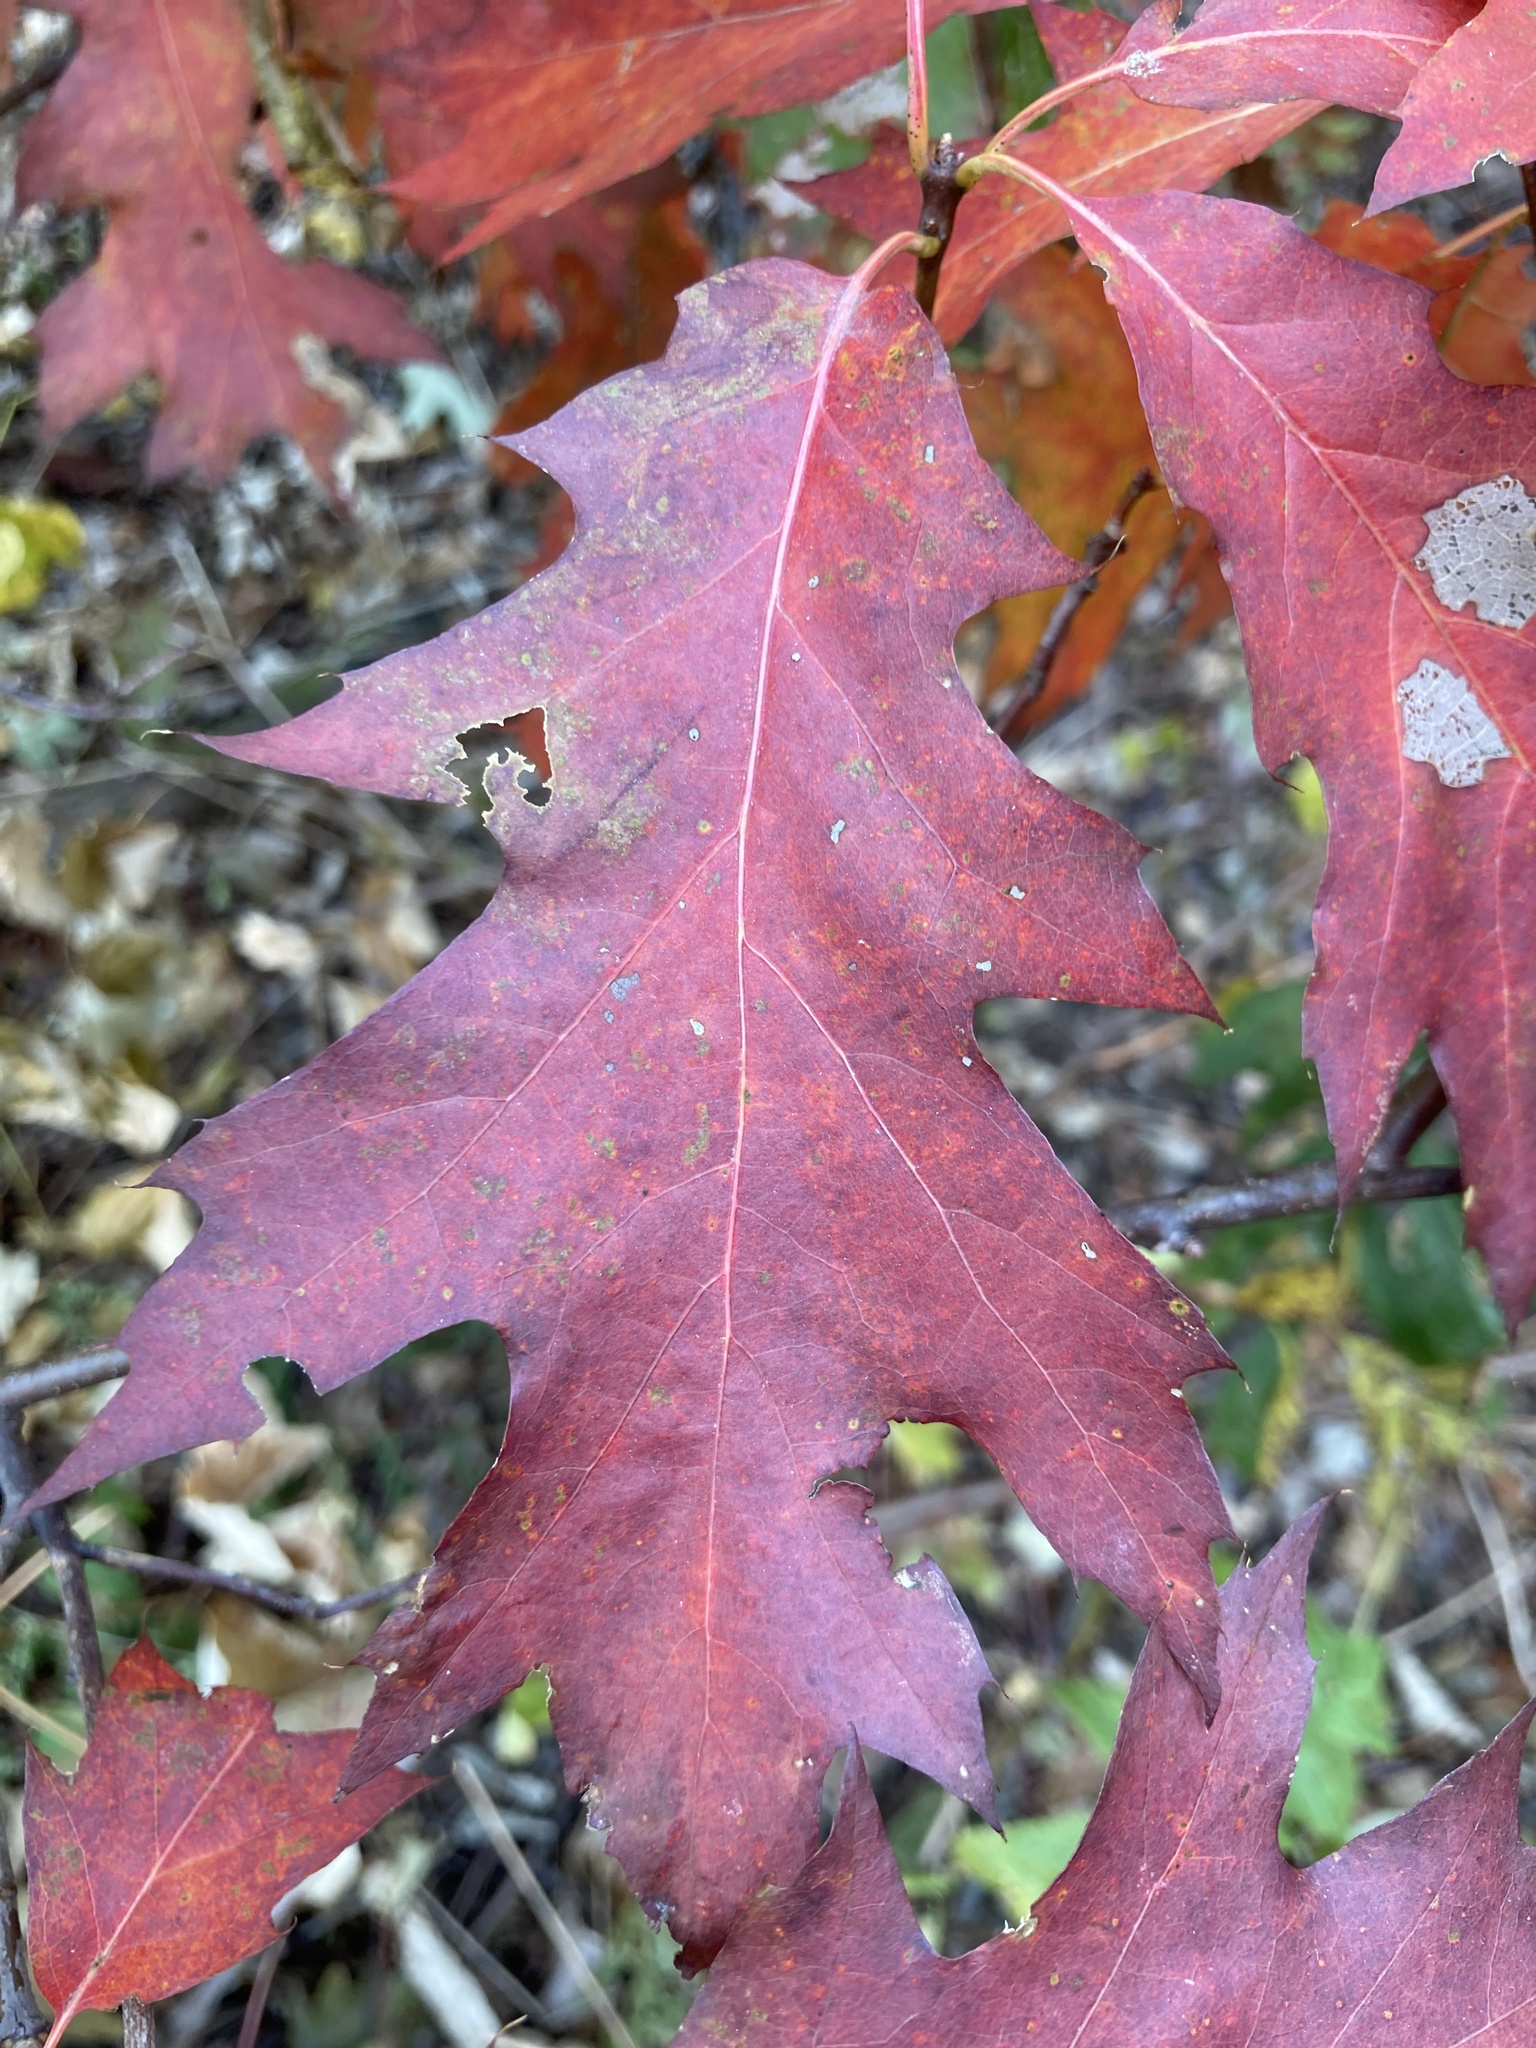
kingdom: Plantae
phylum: Tracheophyta
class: Magnoliopsida
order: Fagales
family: Fagaceae
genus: Quercus
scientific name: Quercus rubra
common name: Red oak
